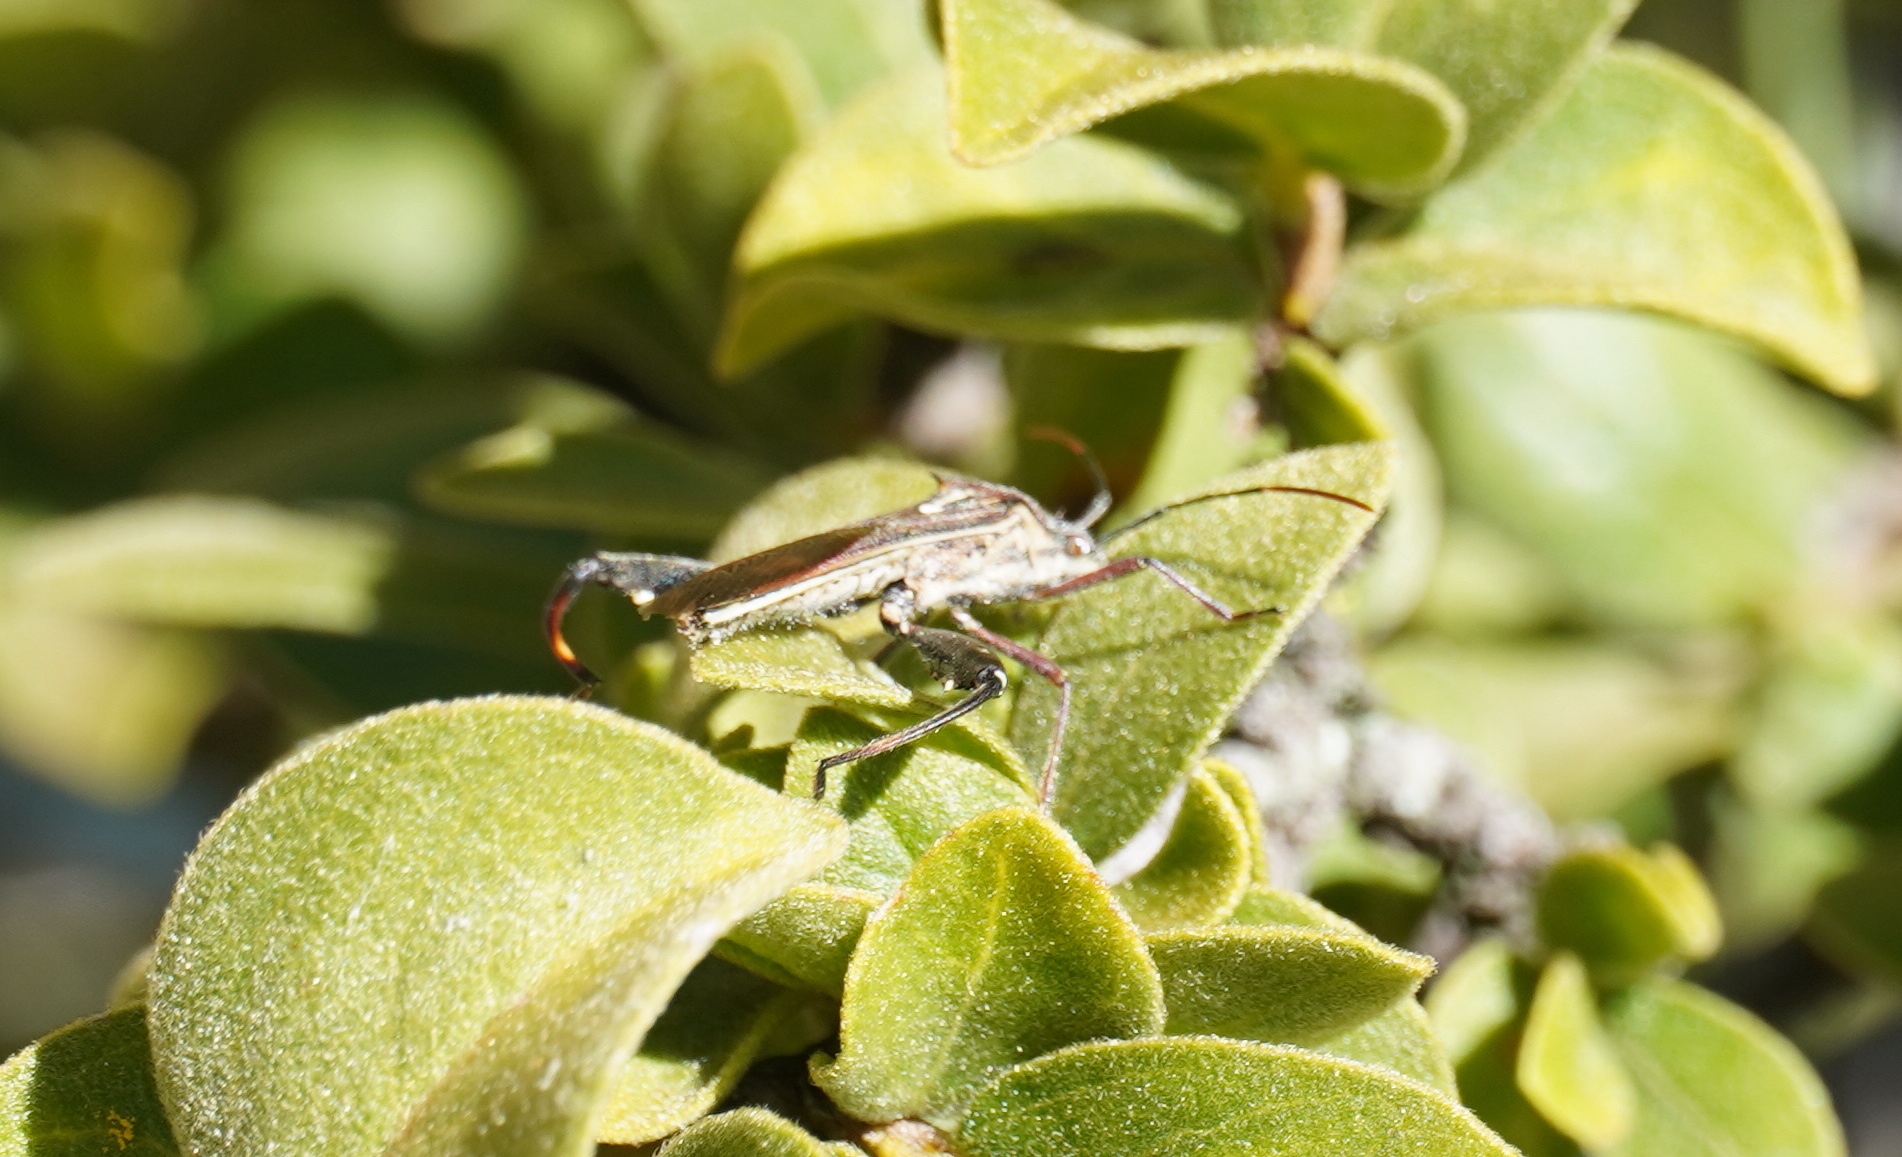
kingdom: Animalia
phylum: Arthropoda
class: Insecta
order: Hemiptera
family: Alydidae
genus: Mirperus
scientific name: Mirperus jaculus
